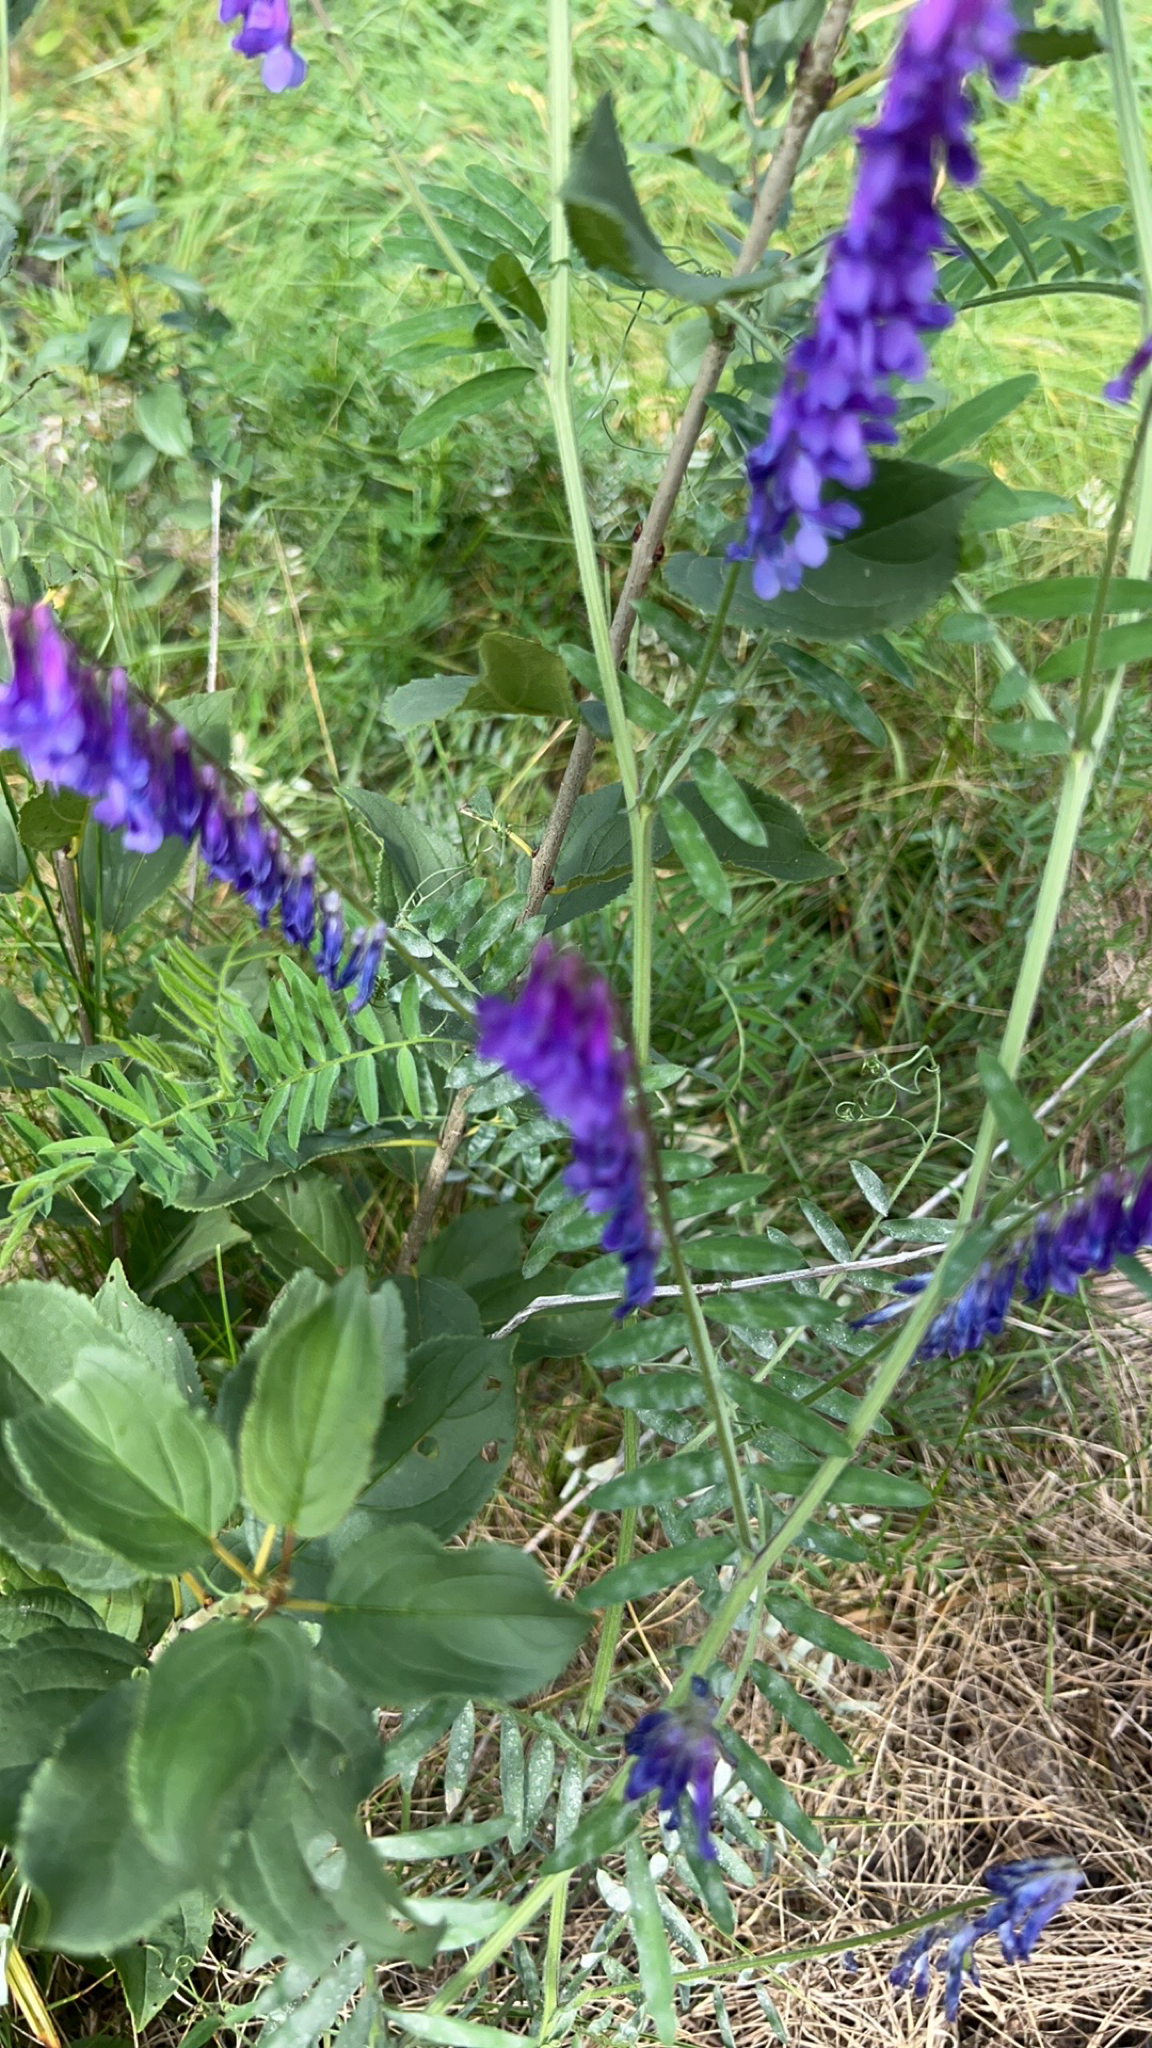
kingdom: Plantae
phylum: Tracheophyta
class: Magnoliopsida
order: Fabales
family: Fabaceae
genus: Vicia
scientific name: Vicia cracca
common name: Bird vetch
